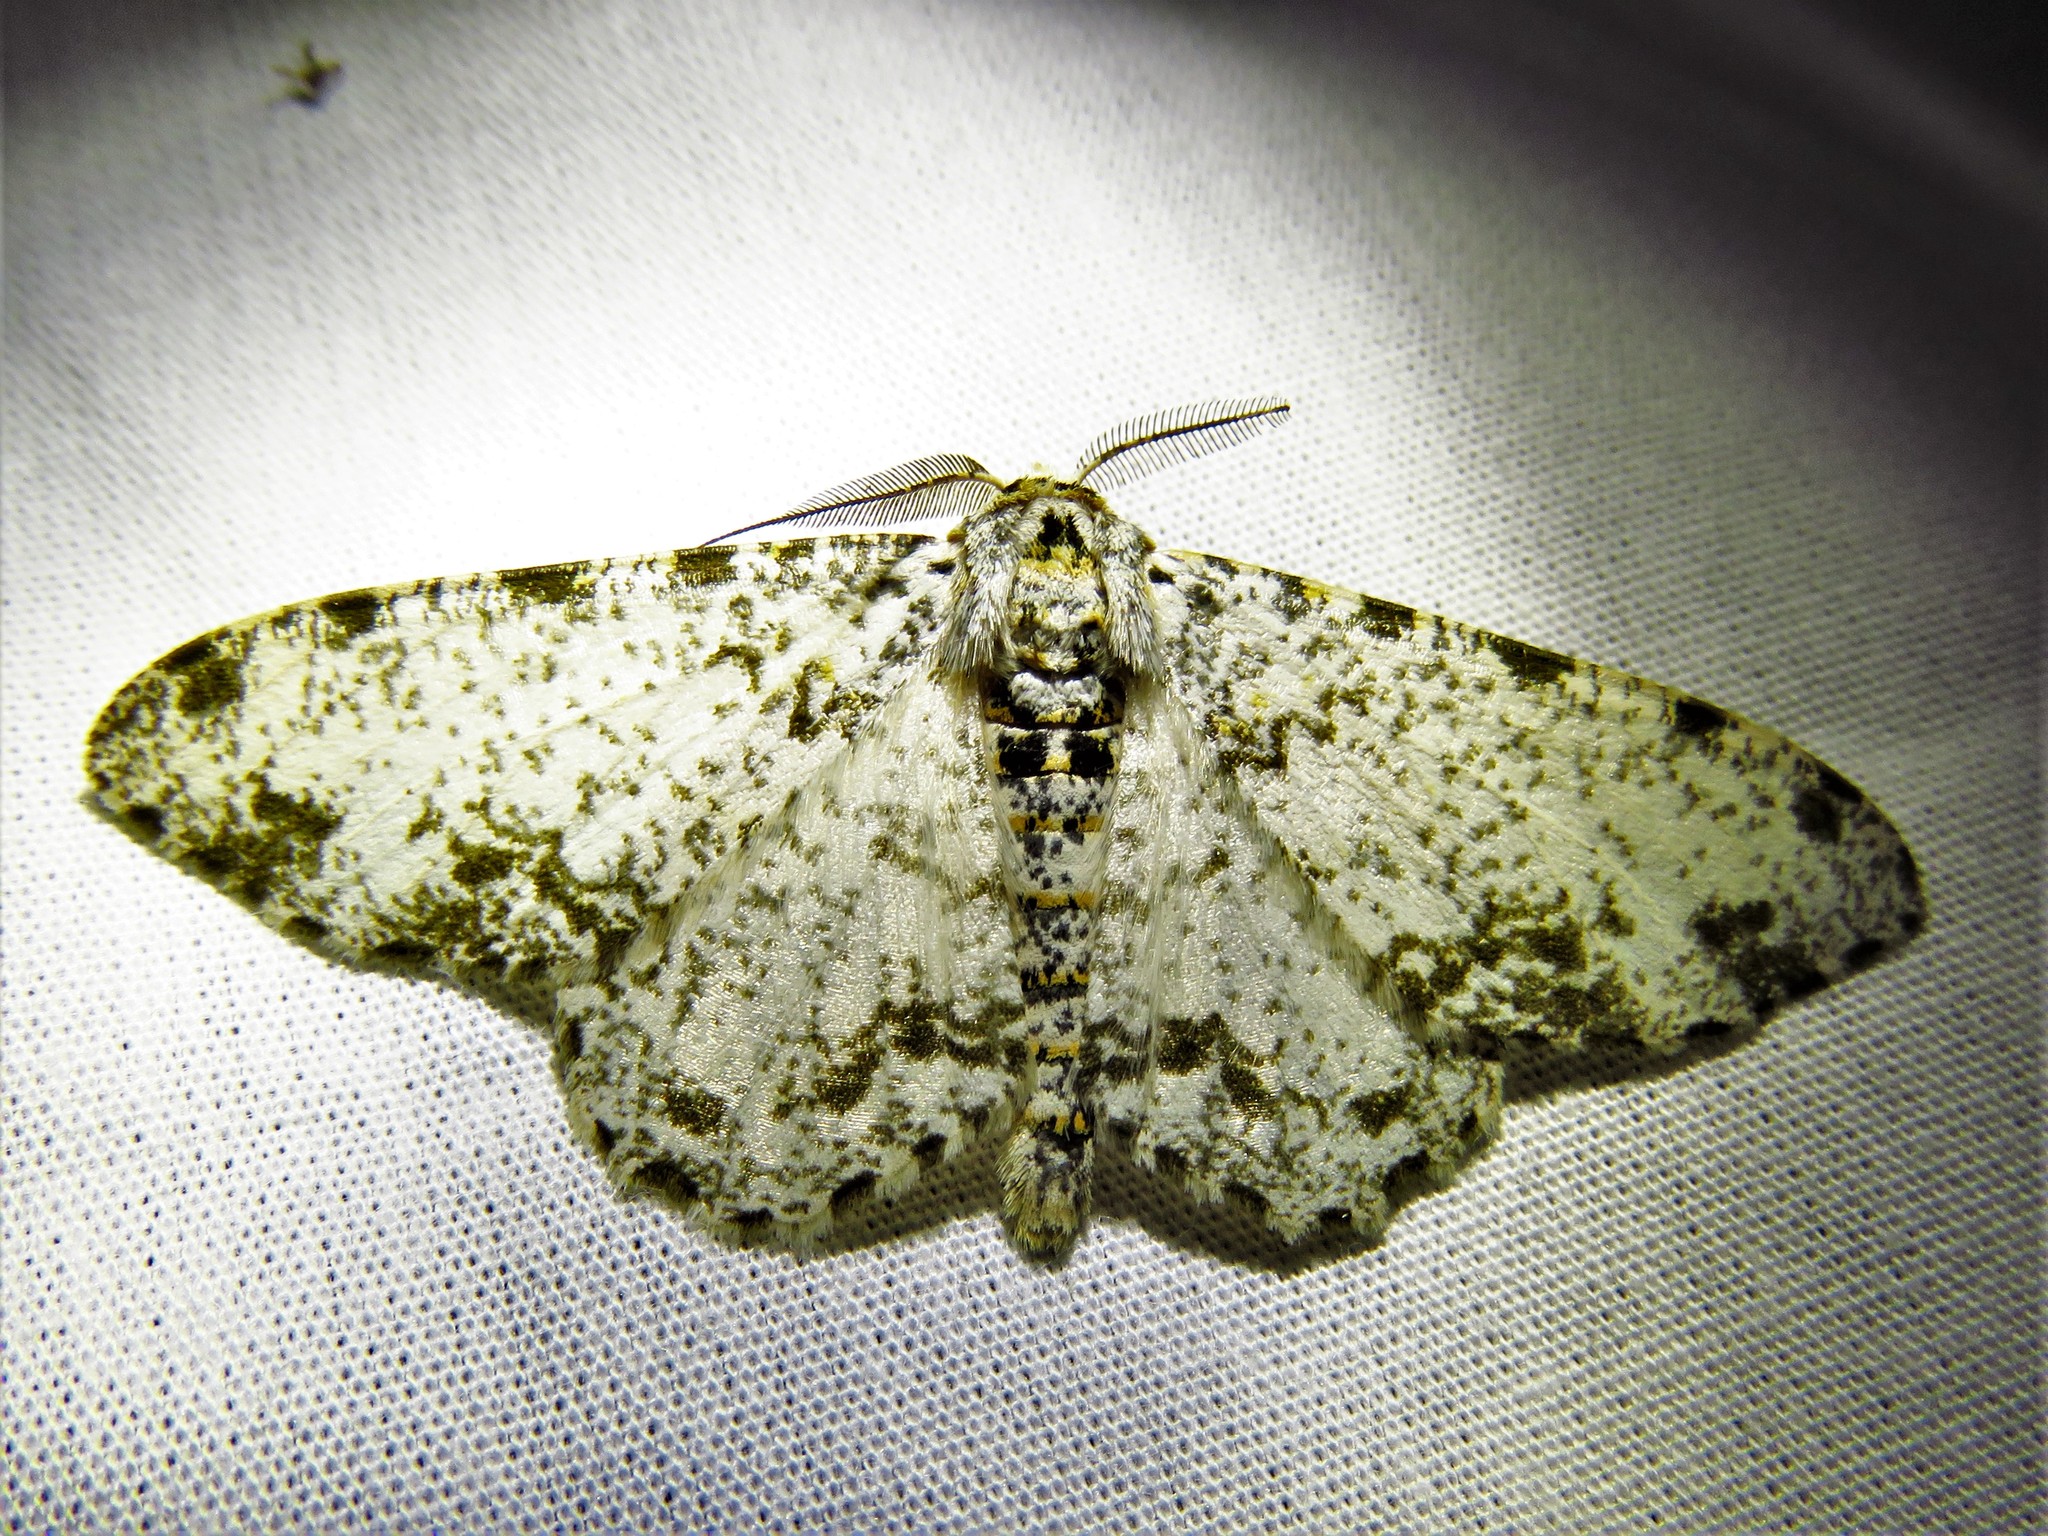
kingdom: Animalia
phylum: Arthropoda
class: Insecta
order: Lepidoptera
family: Geometridae
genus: Biston
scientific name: Biston abruptaria
